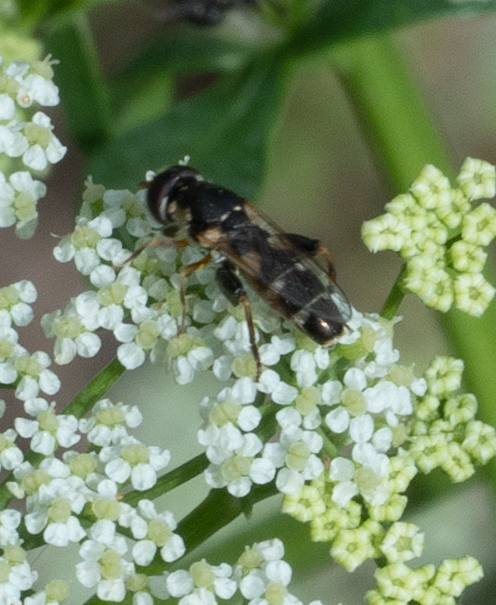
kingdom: Animalia
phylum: Arthropoda
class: Insecta
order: Diptera
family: Syrphidae
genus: Syritta
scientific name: Syritta pipiens
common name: Hover fly
